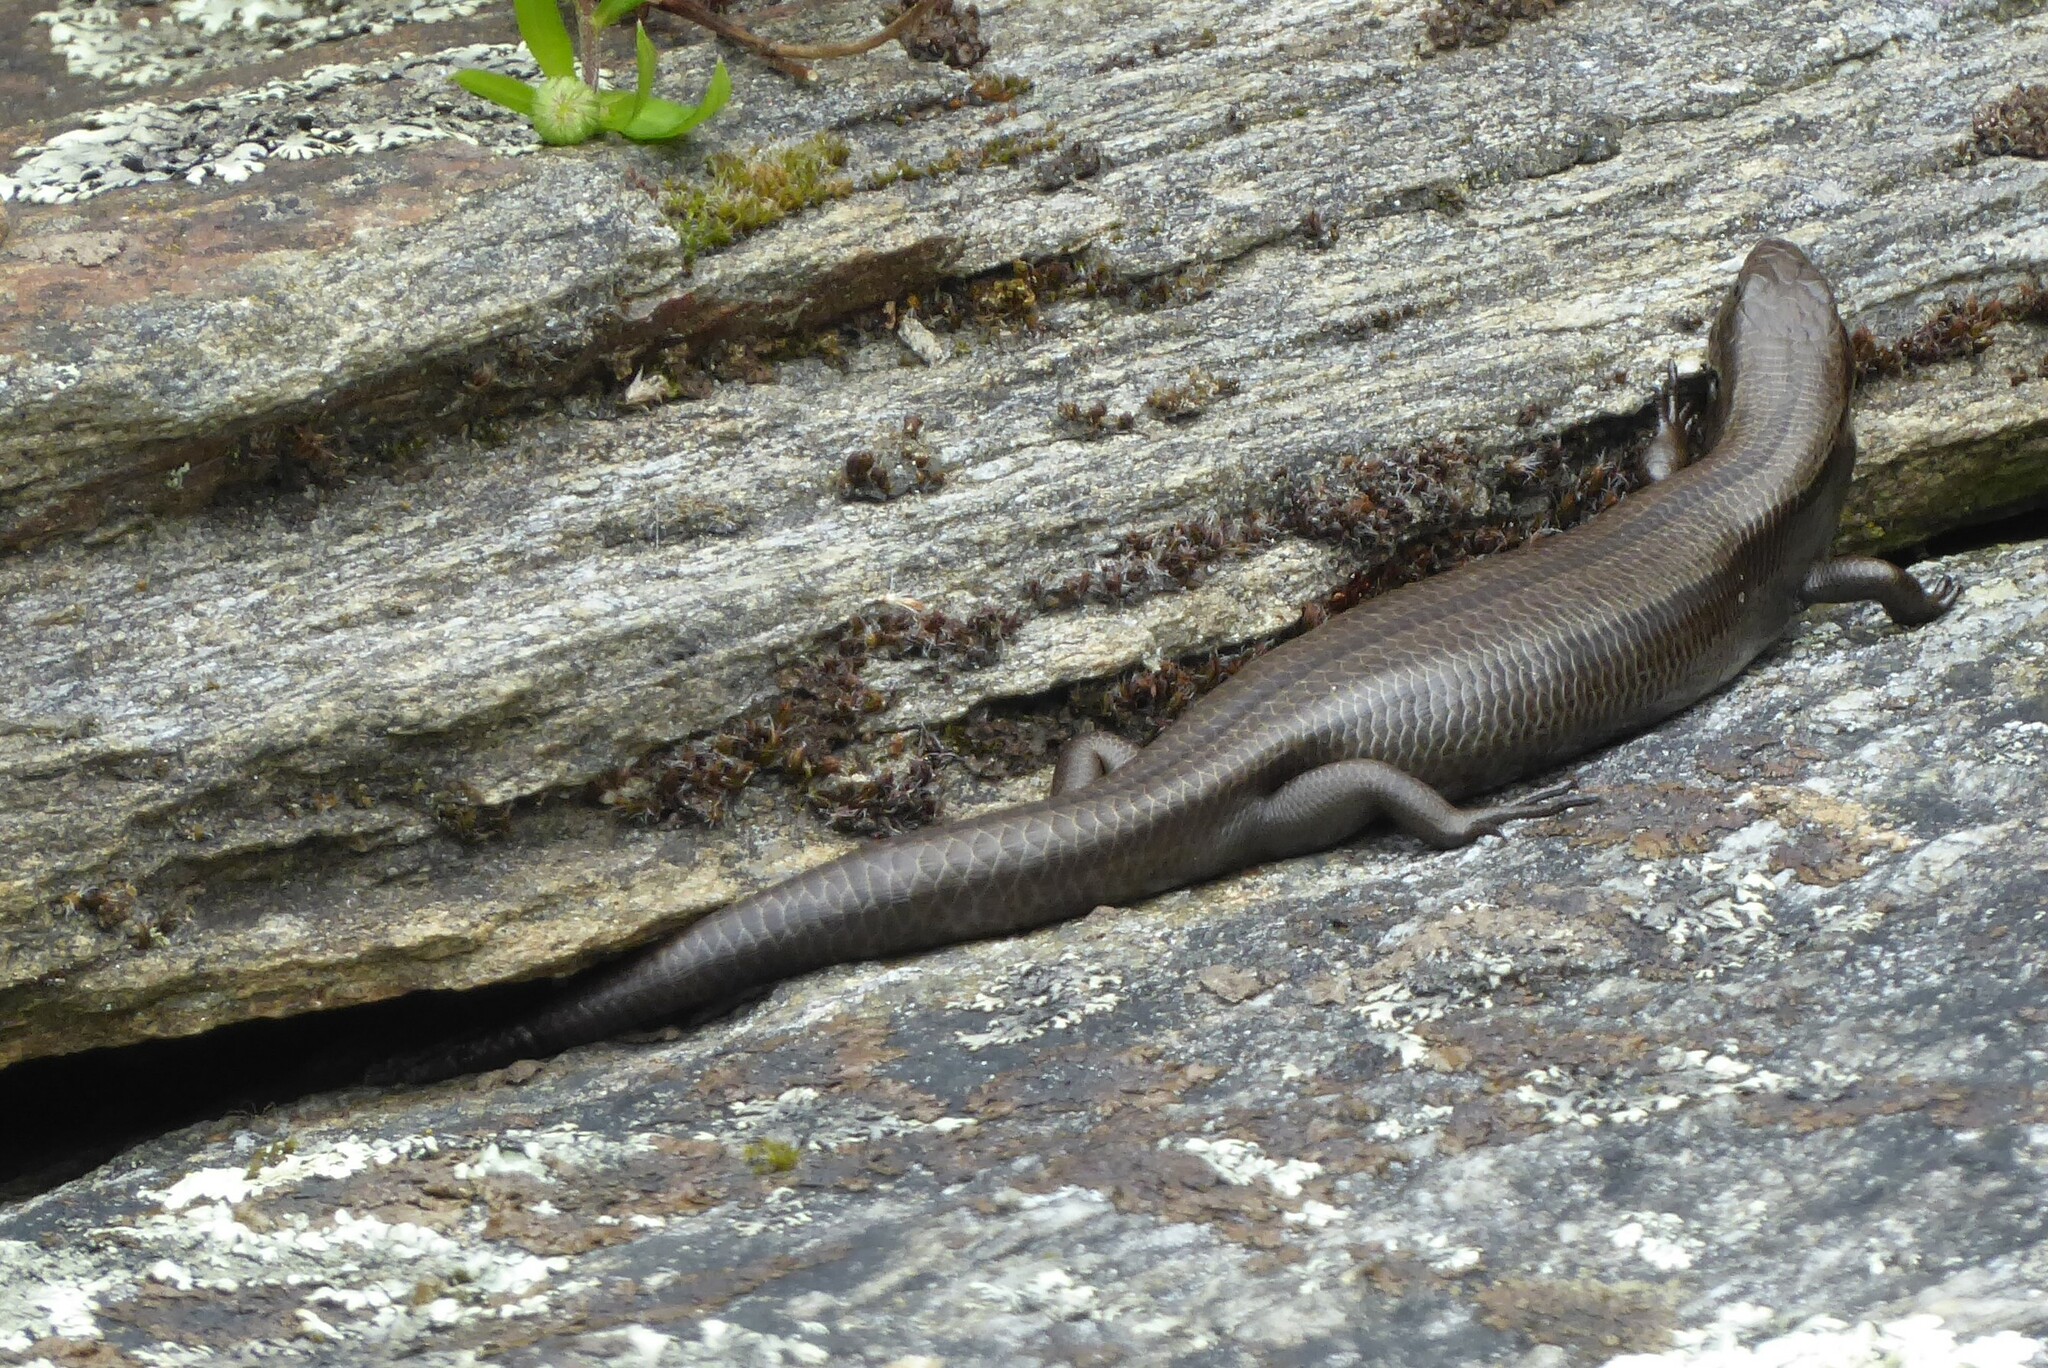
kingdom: Animalia
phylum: Chordata
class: Squamata
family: Scincidae
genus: Oligosoma
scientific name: Oligosoma polychroma
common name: Common new zealand skink
